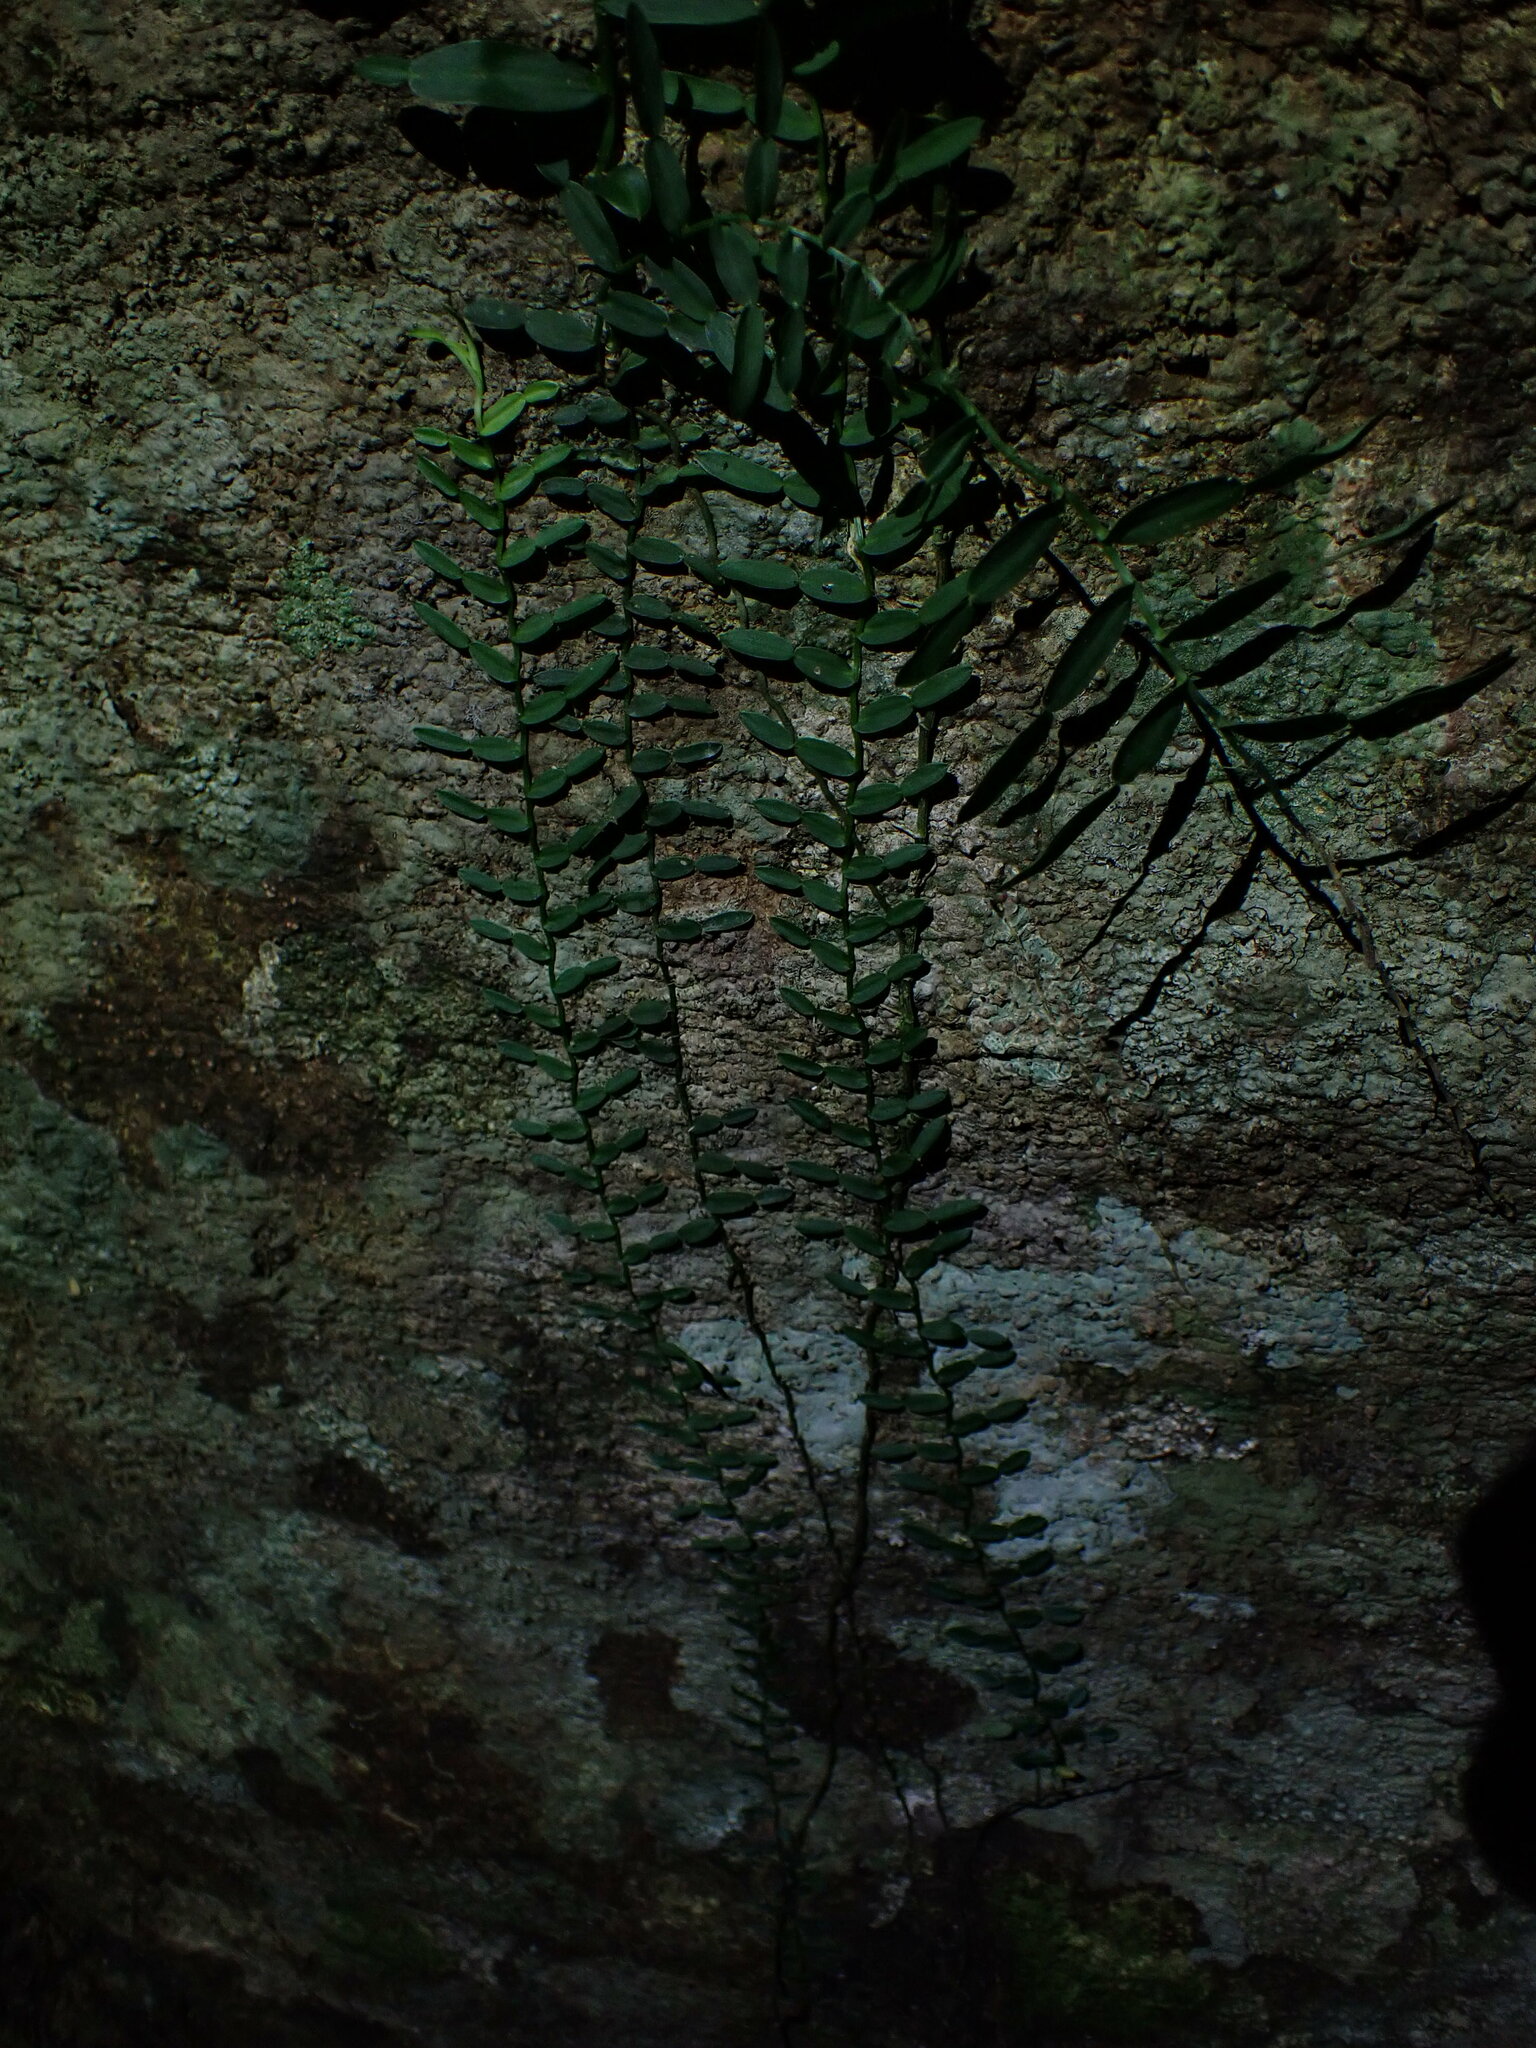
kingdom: Plantae
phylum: Tracheophyta
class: Liliopsida
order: Alismatales
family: Araceae
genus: Pothos
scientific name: Pothos longipes
